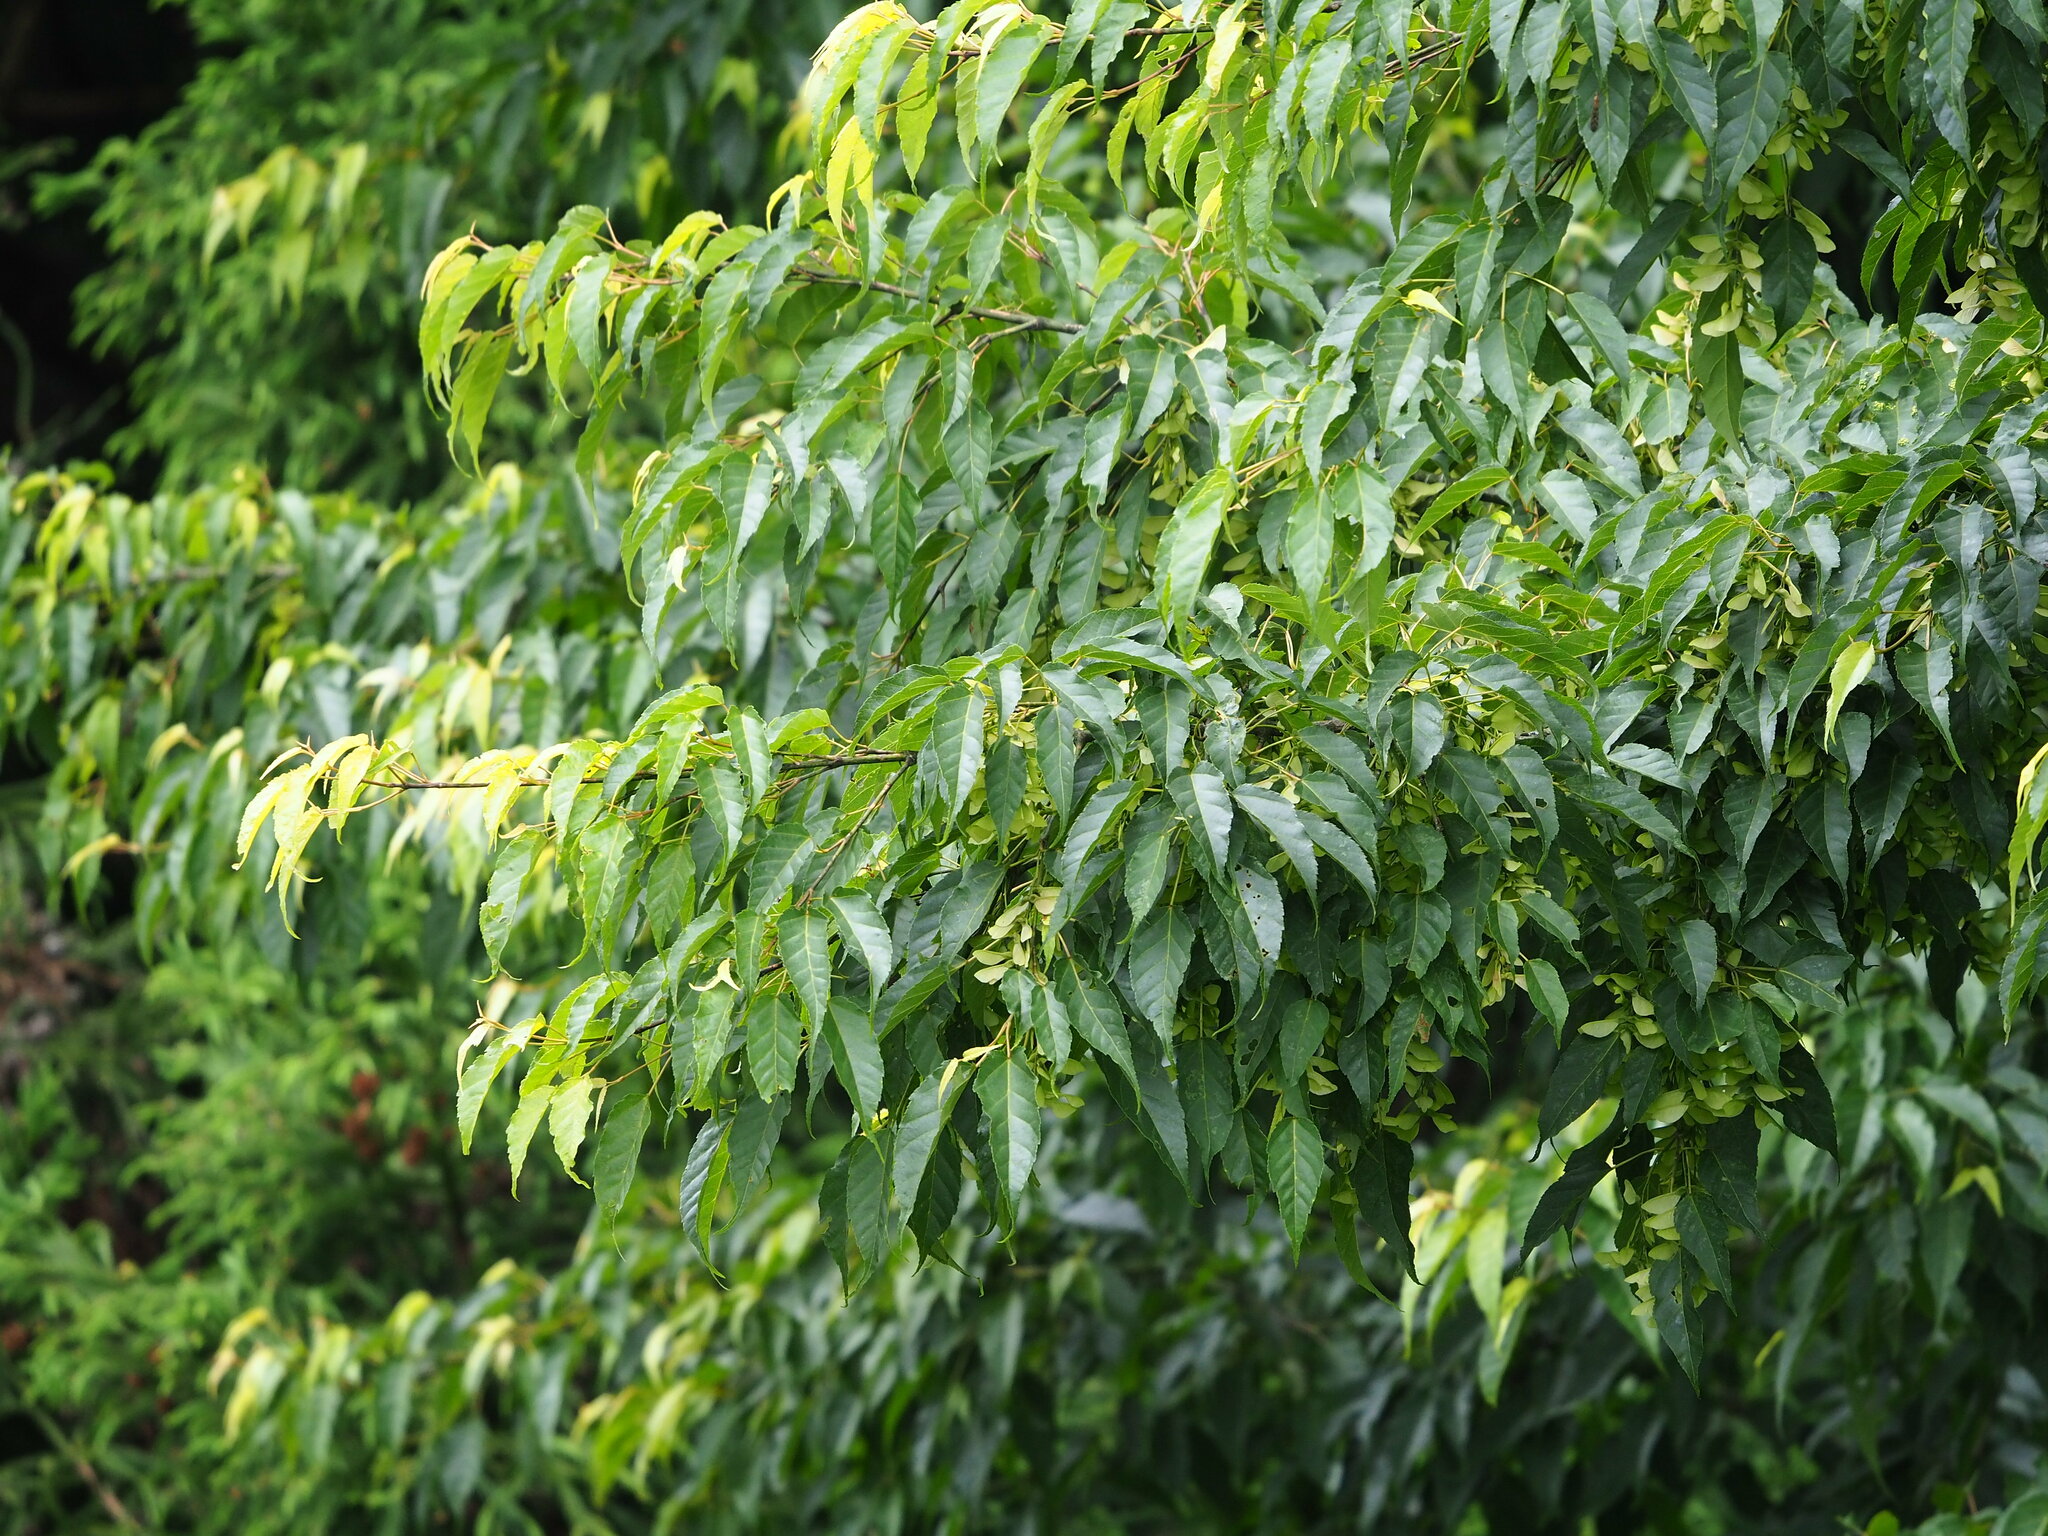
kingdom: Plantae
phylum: Tracheophyta
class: Magnoliopsida
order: Sapindales
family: Sapindaceae
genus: Acer
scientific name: Acer caudatifolium
